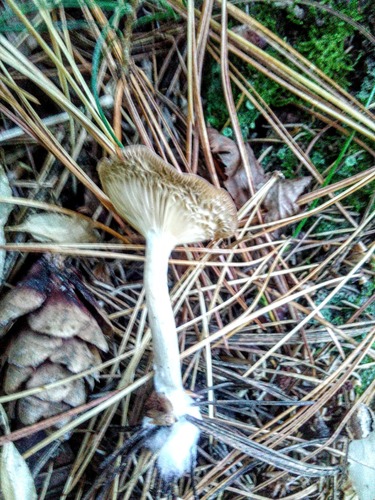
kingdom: Fungi
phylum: Basidiomycota
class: Agaricomycetes
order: Agaricales
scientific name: Agaricales
